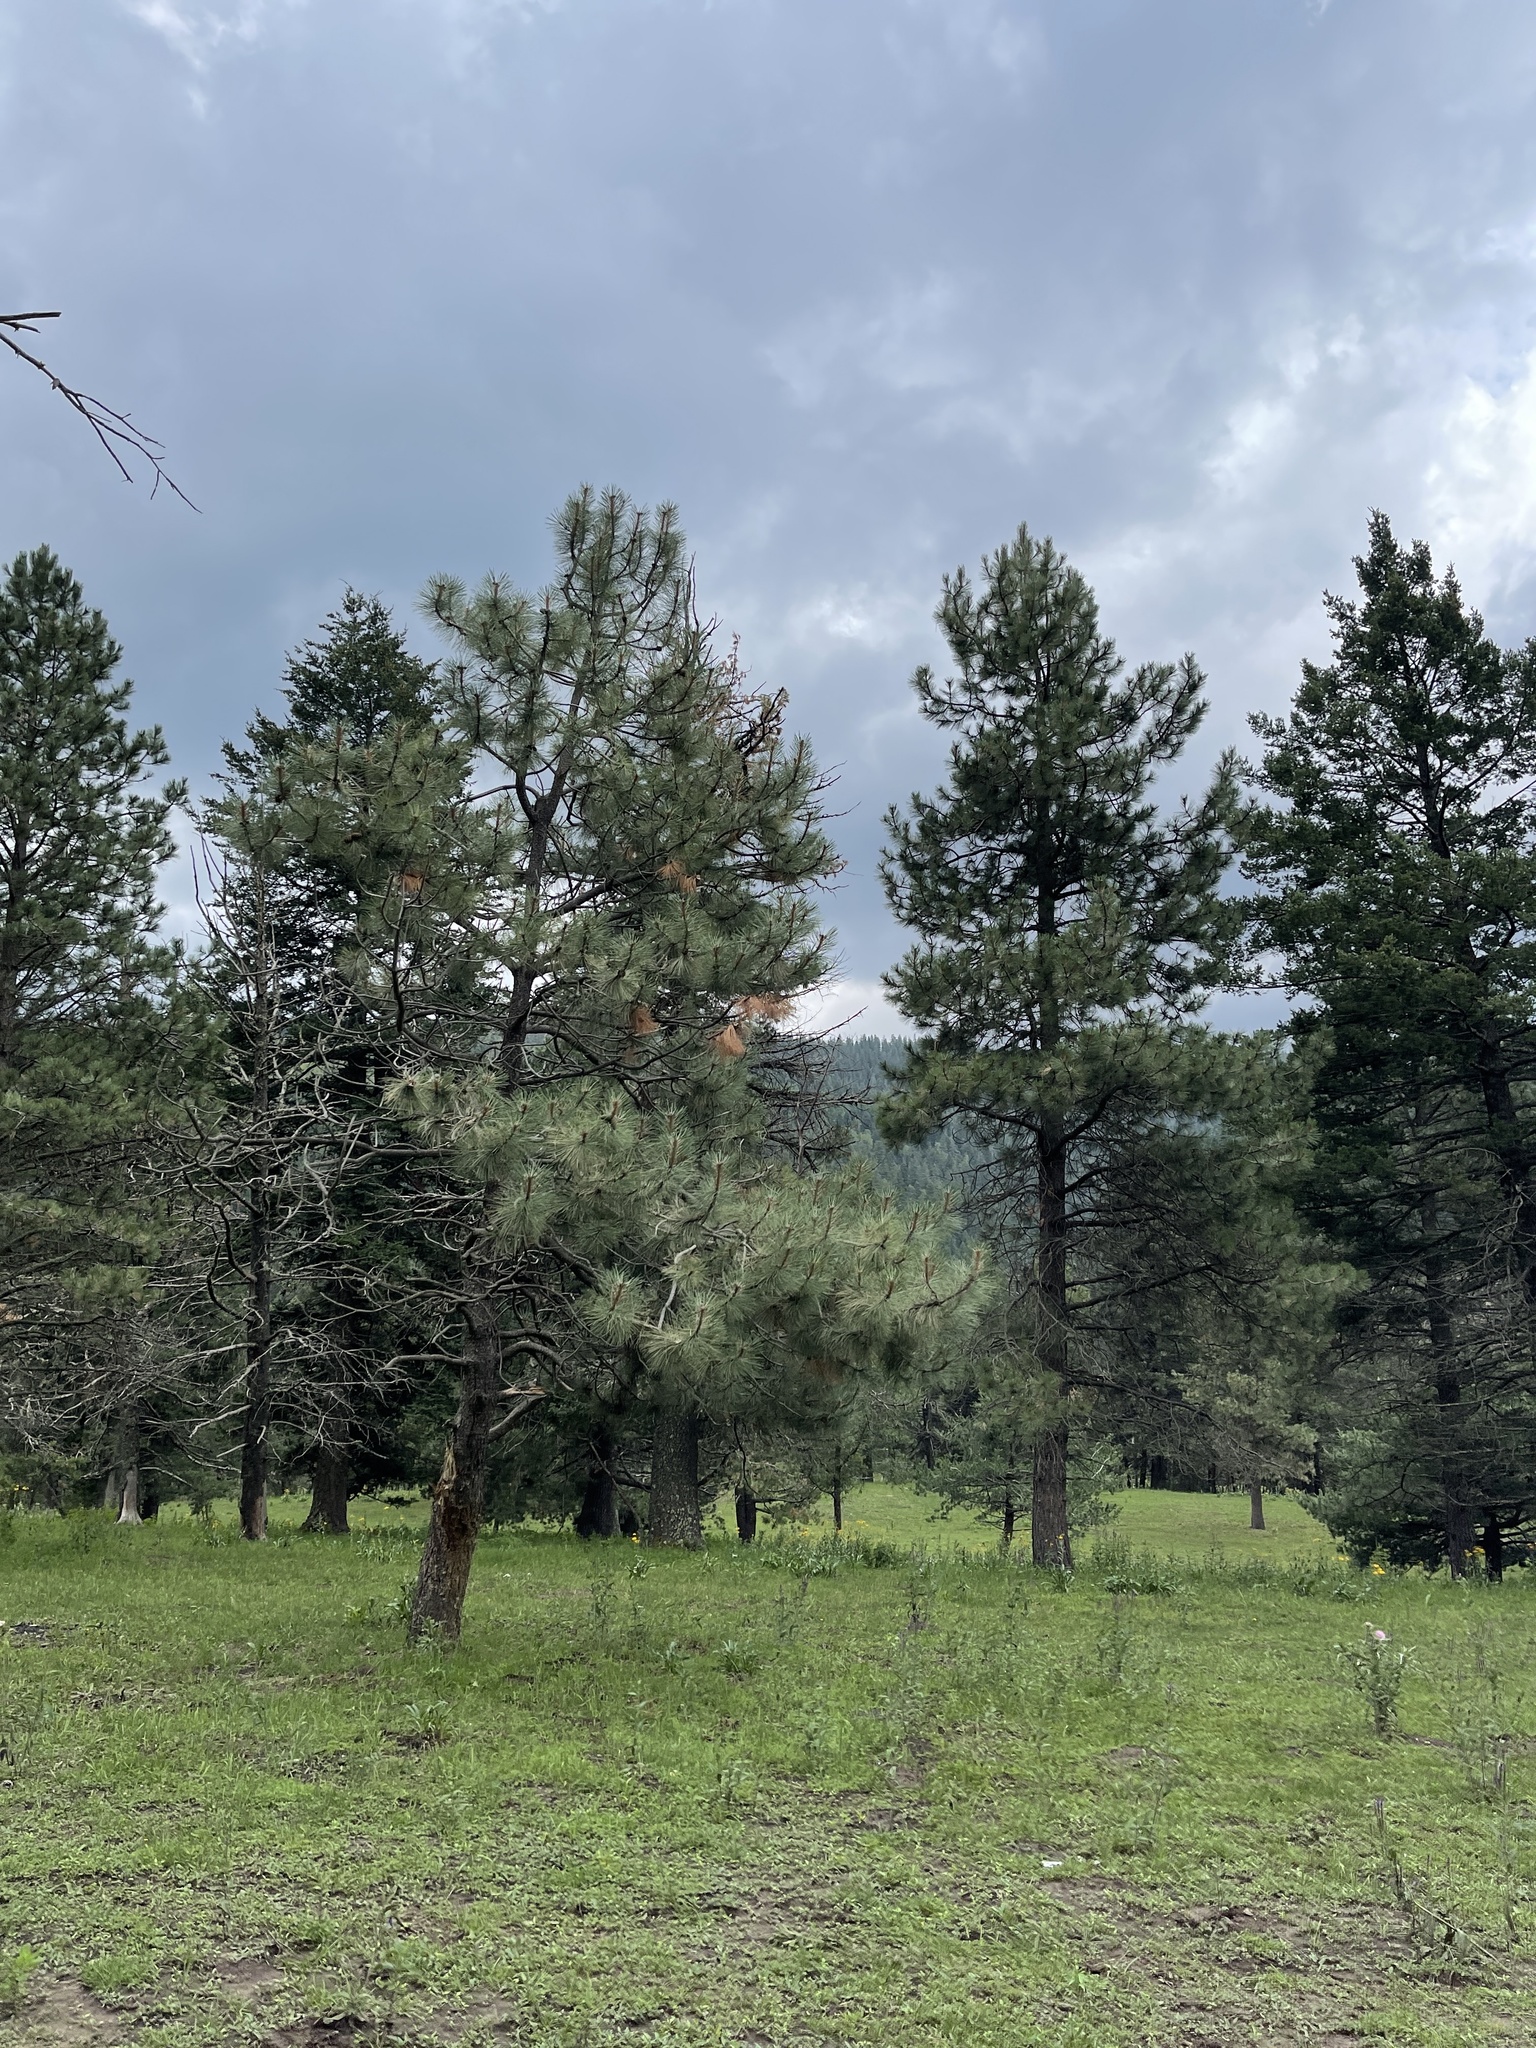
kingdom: Plantae
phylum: Tracheophyta
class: Pinopsida
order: Pinales
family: Pinaceae
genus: Pinus
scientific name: Pinus ponderosa
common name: Western yellow-pine
